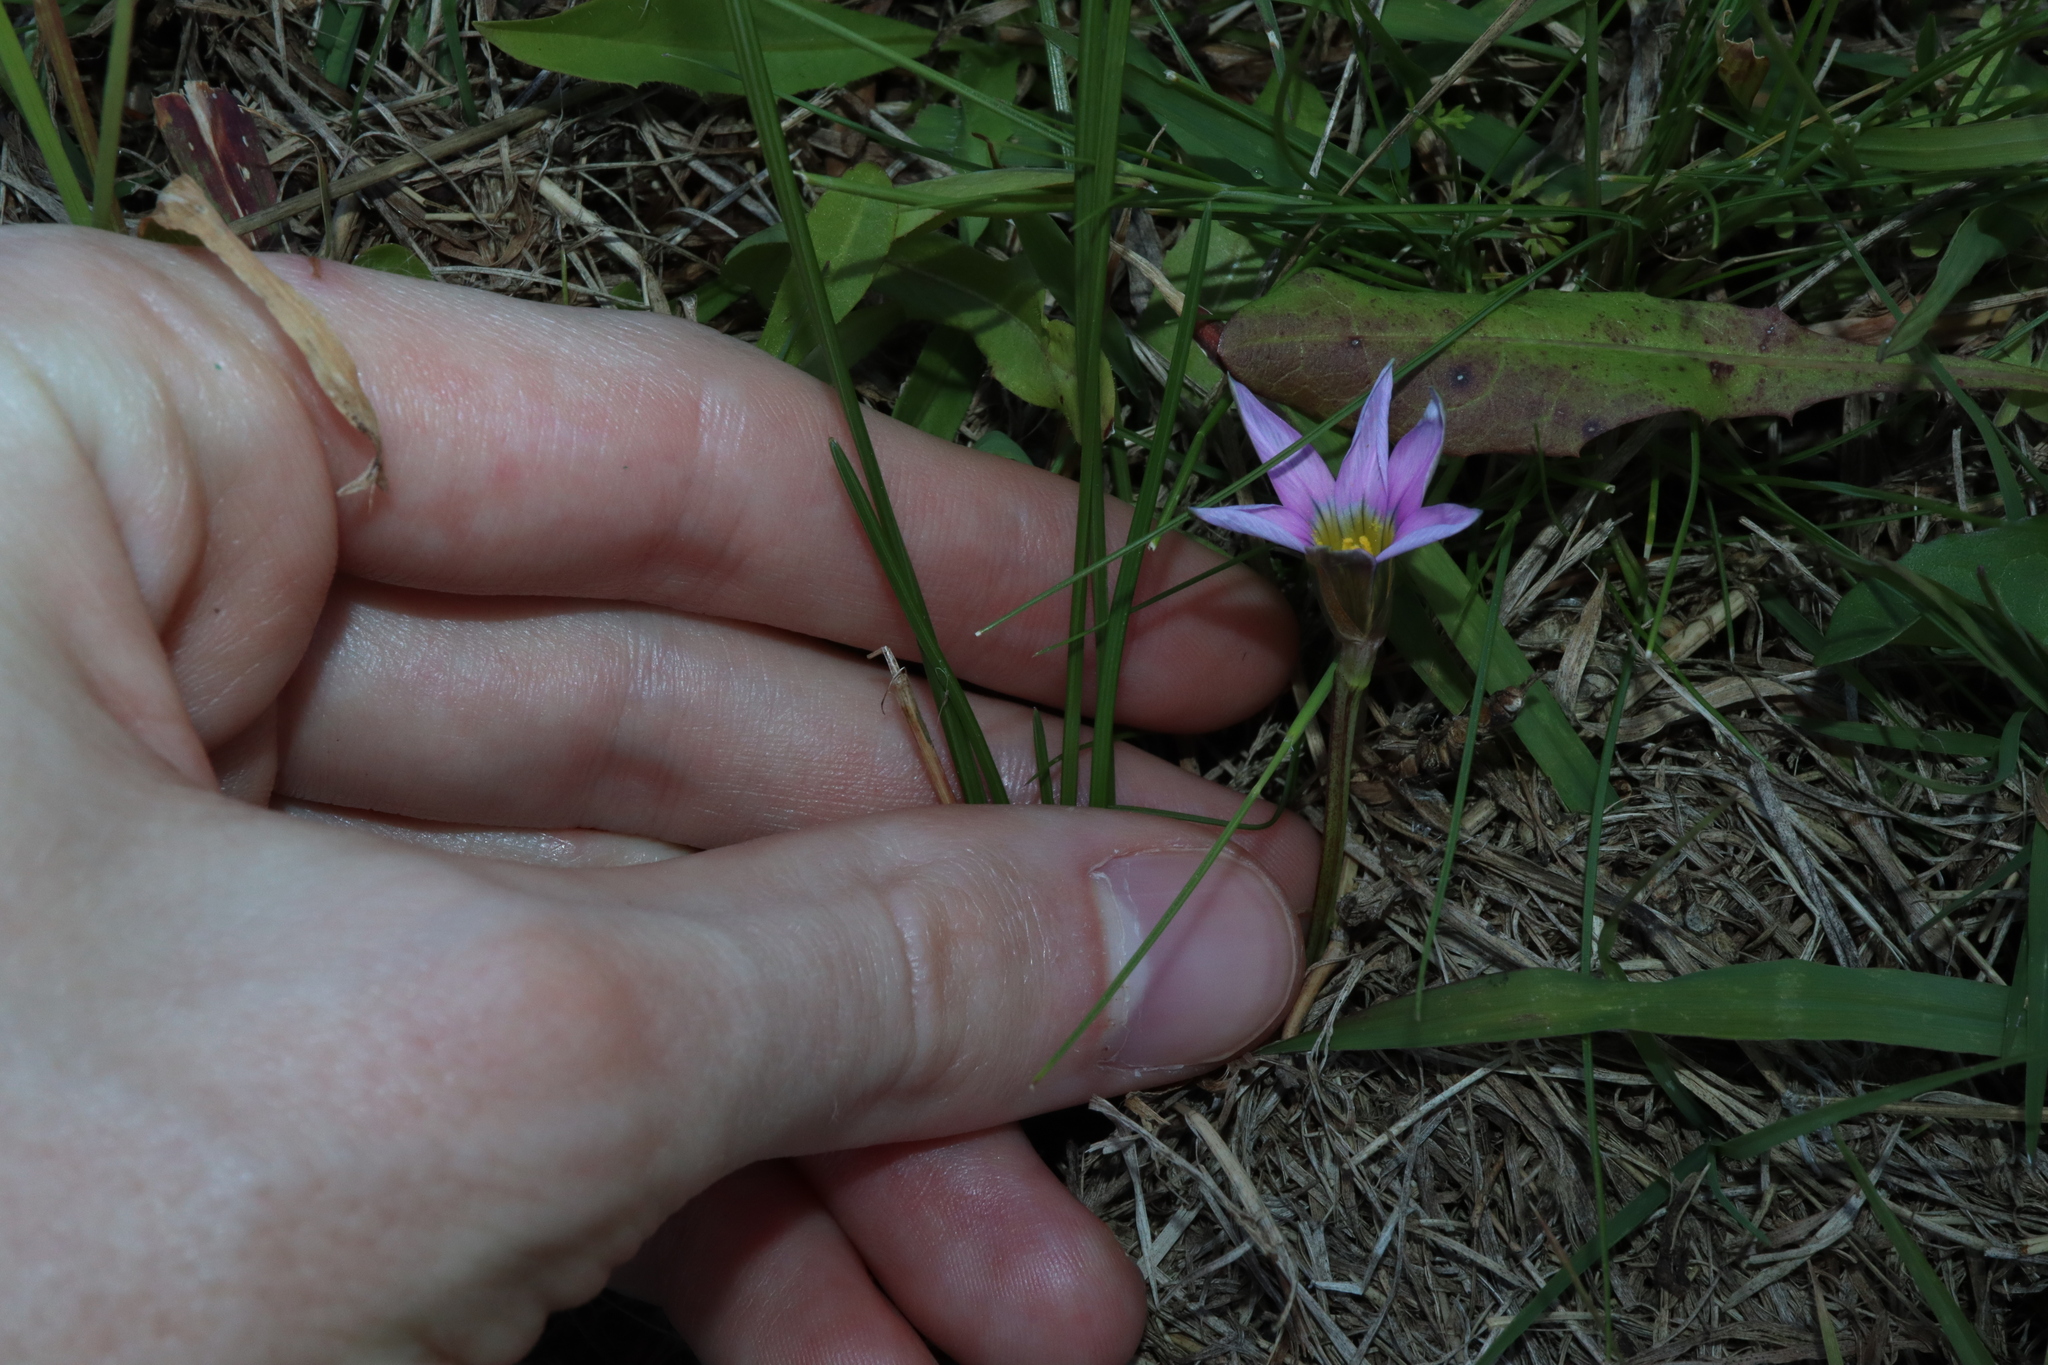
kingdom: Plantae
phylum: Tracheophyta
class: Liliopsida
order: Asparagales
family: Iridaceae
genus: Romulea
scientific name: Romulea rosea
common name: Oniongrass
